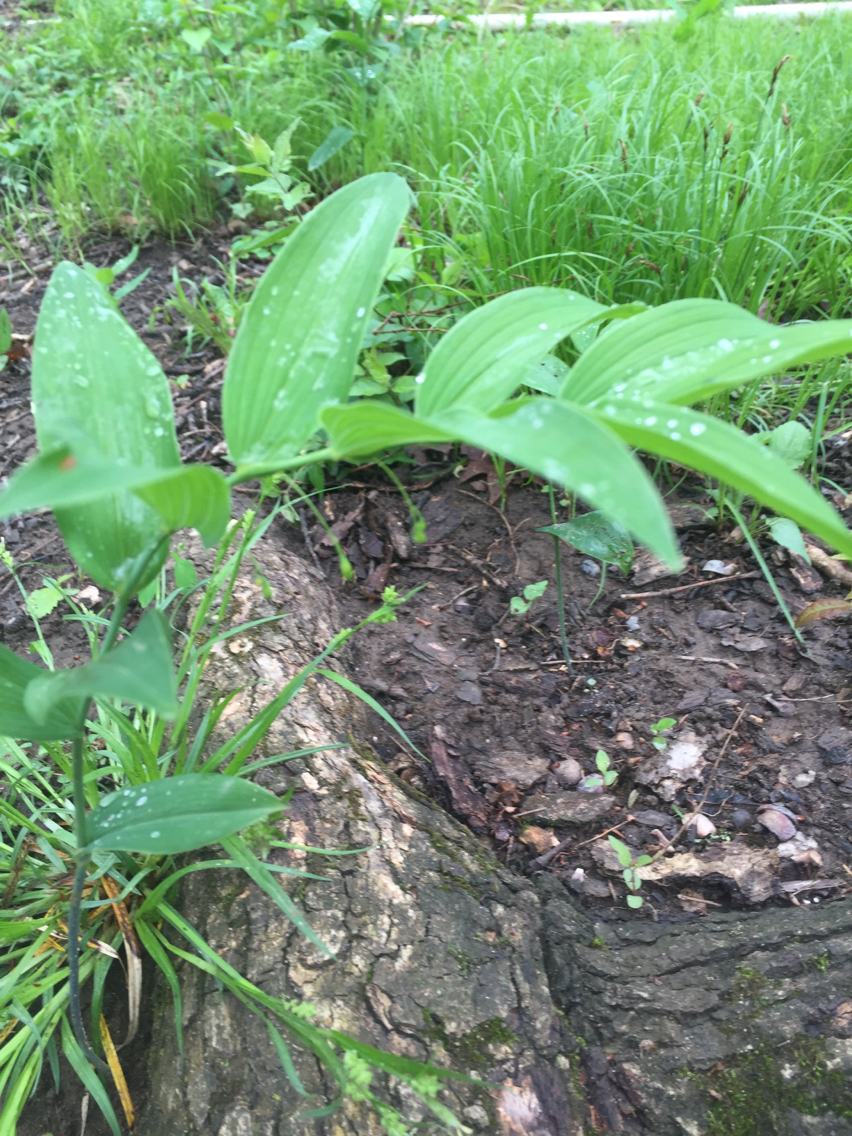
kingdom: Plantae
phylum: Tracheophyta
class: Liliopsida
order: Asparagales
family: Asparagaceae
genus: Polygonatum
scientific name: Polygonatum biflorum
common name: American solomon's-seal
